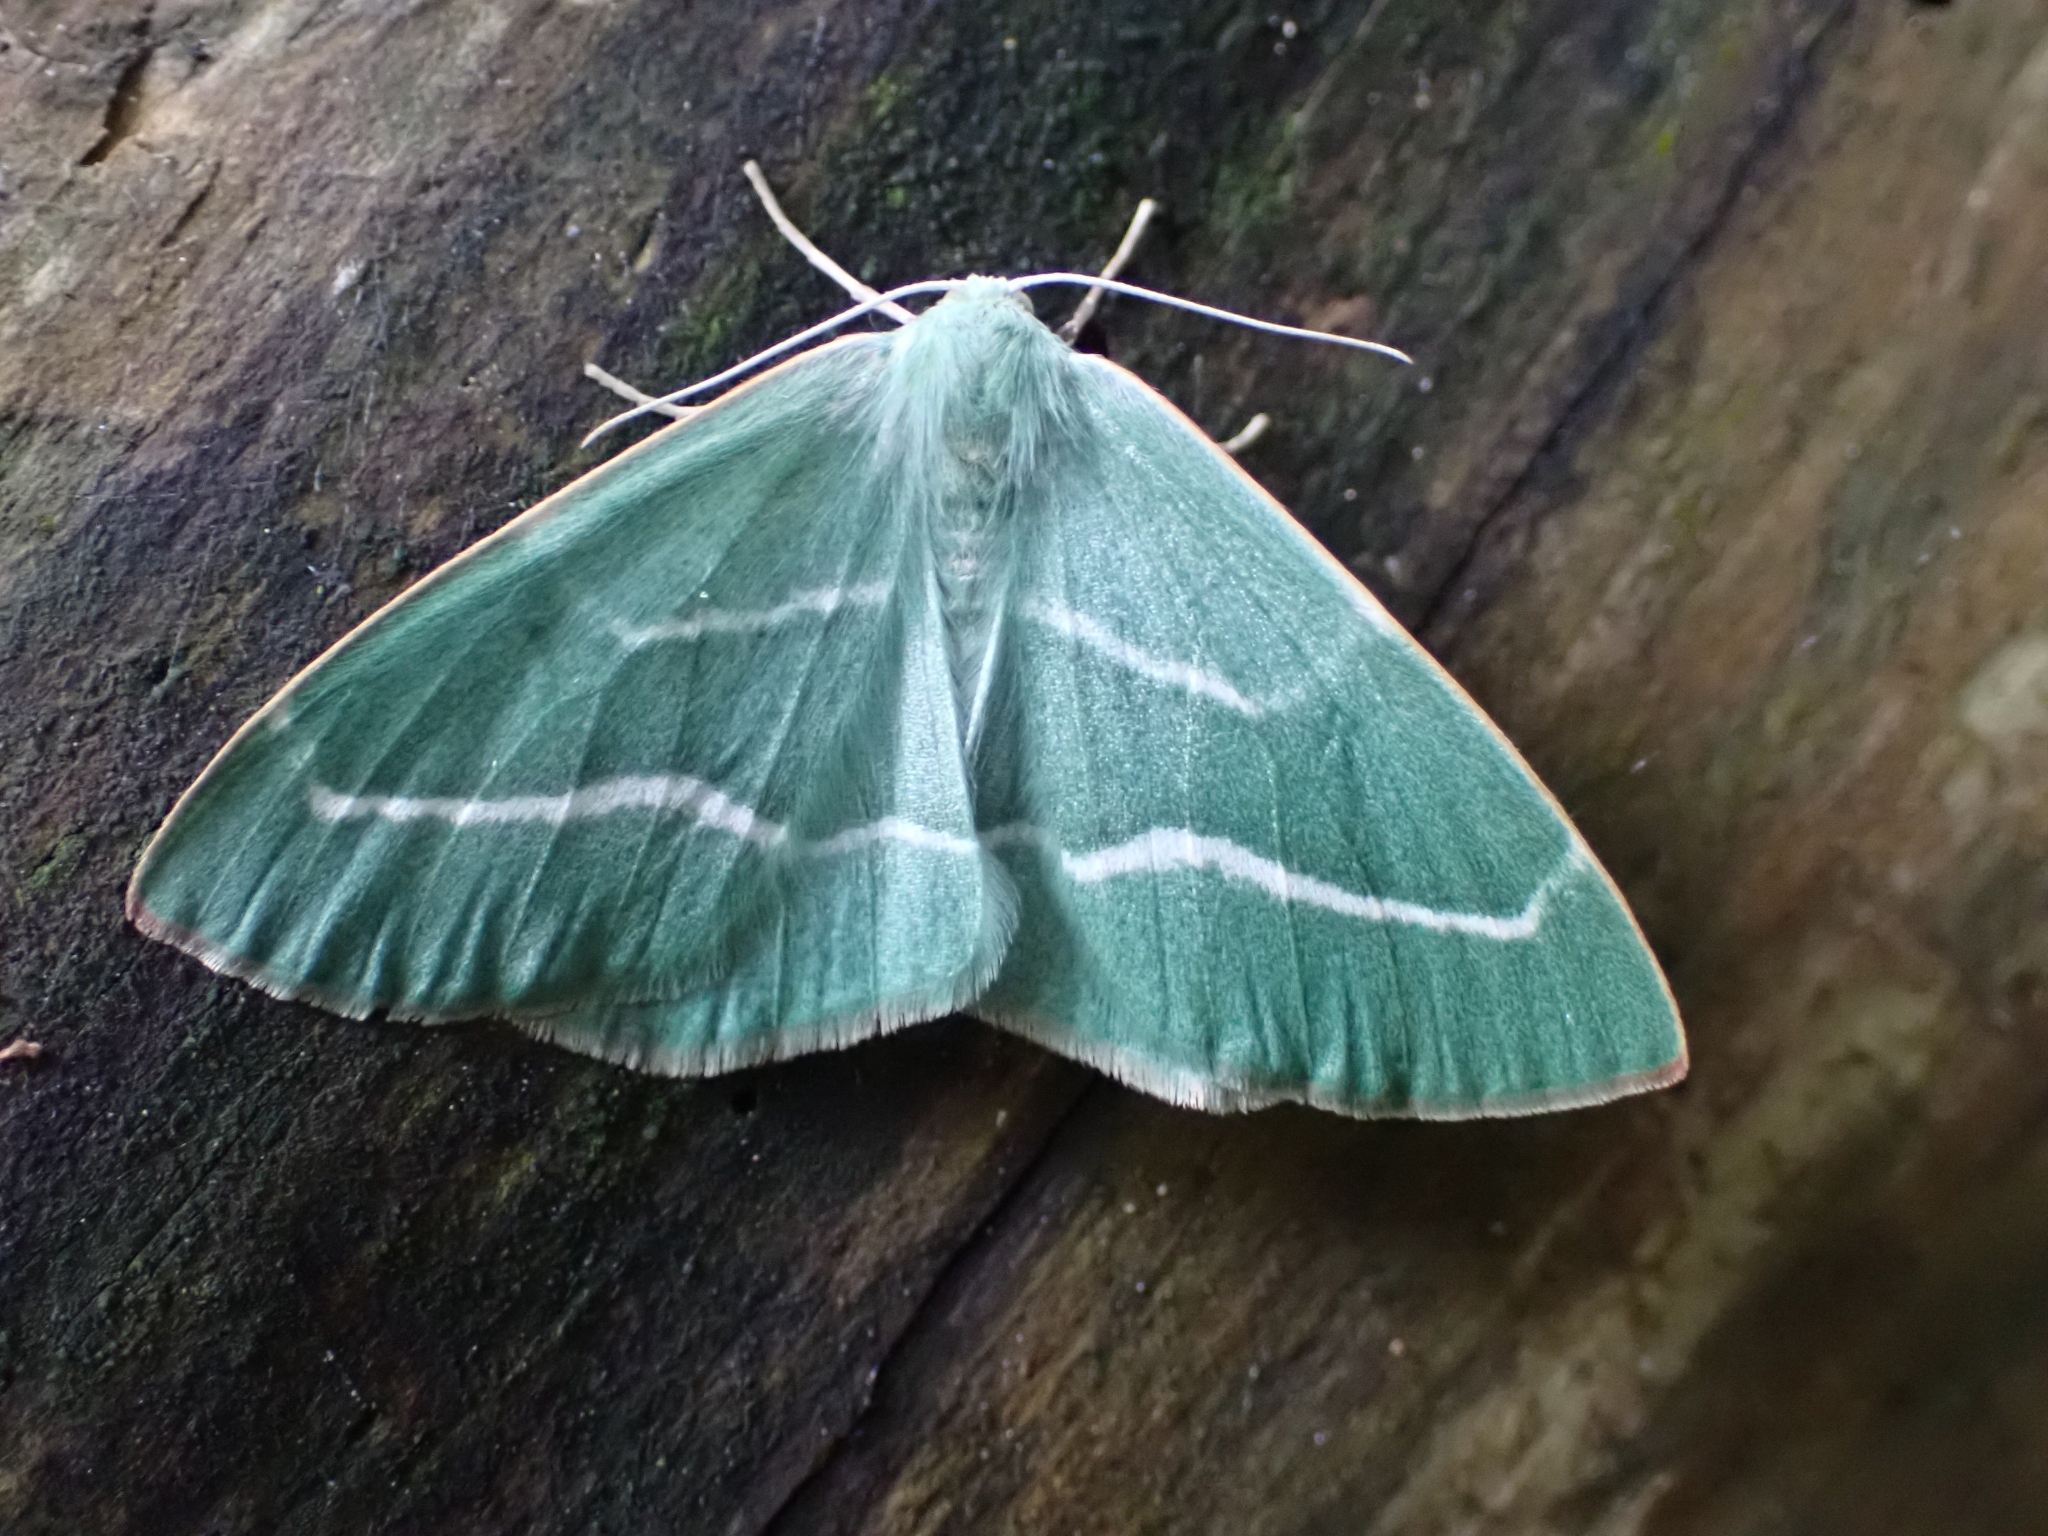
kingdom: Animalia
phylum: Arthropoda
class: Insecta
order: Lepidoptera
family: Geometridae
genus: Hylaea
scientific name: Hylaea fasciaria
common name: Barred red
